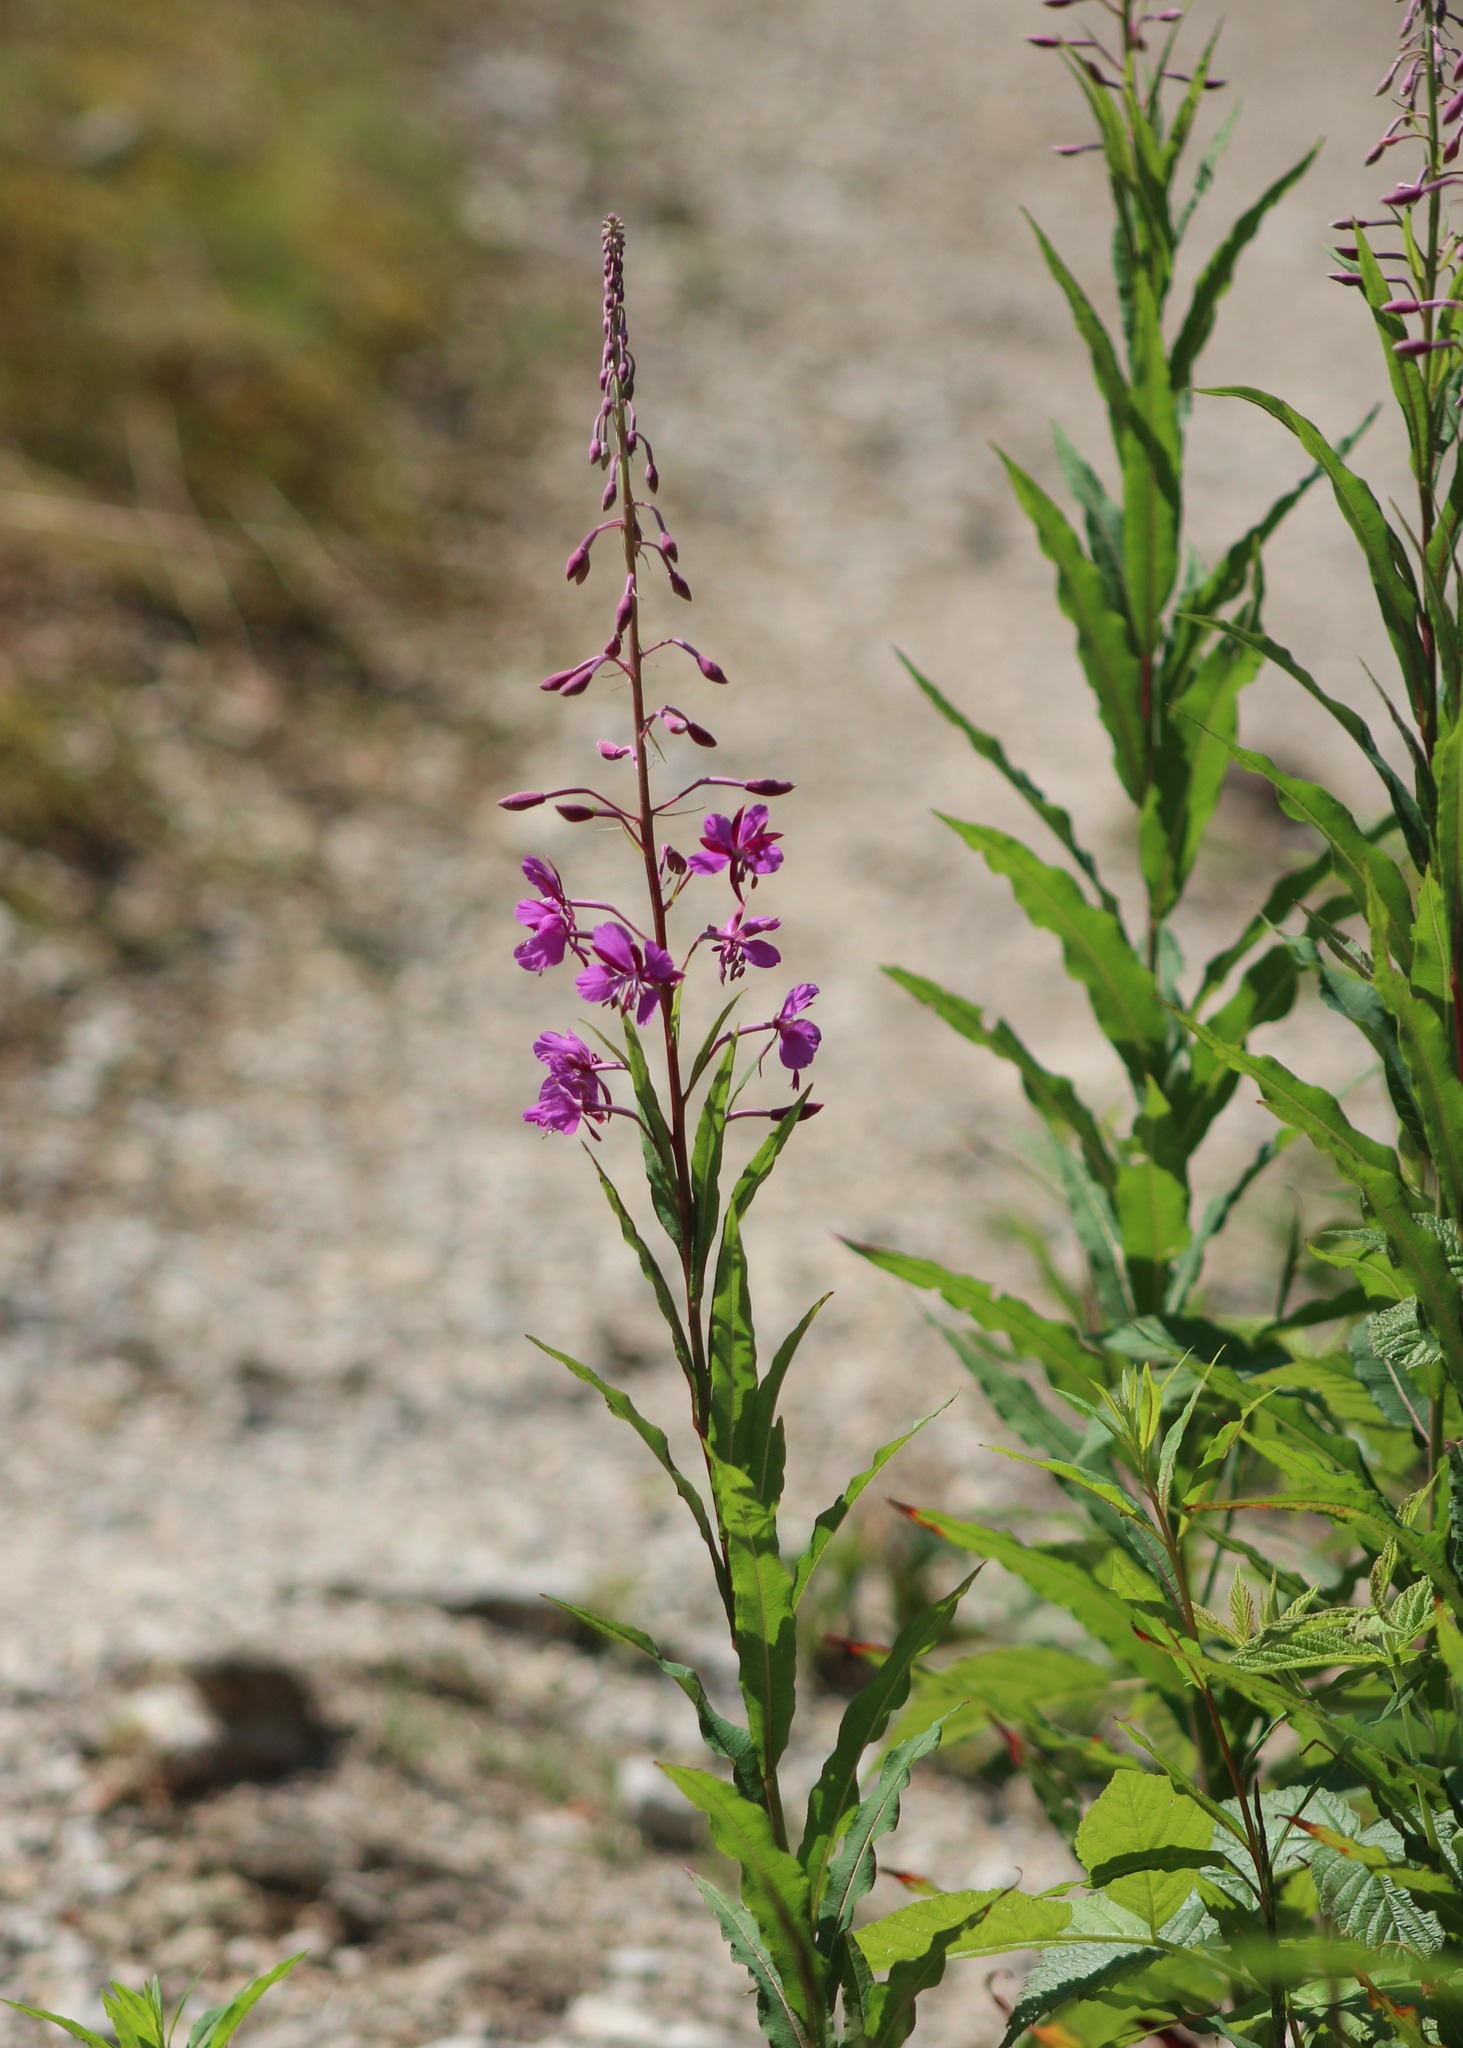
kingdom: Plantae
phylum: Tracheophyta
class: Magnoliopsida
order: Myrtales
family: Onagraceae
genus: Chamaenerion
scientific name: Chamaenerion angustifolium
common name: Fireweed
